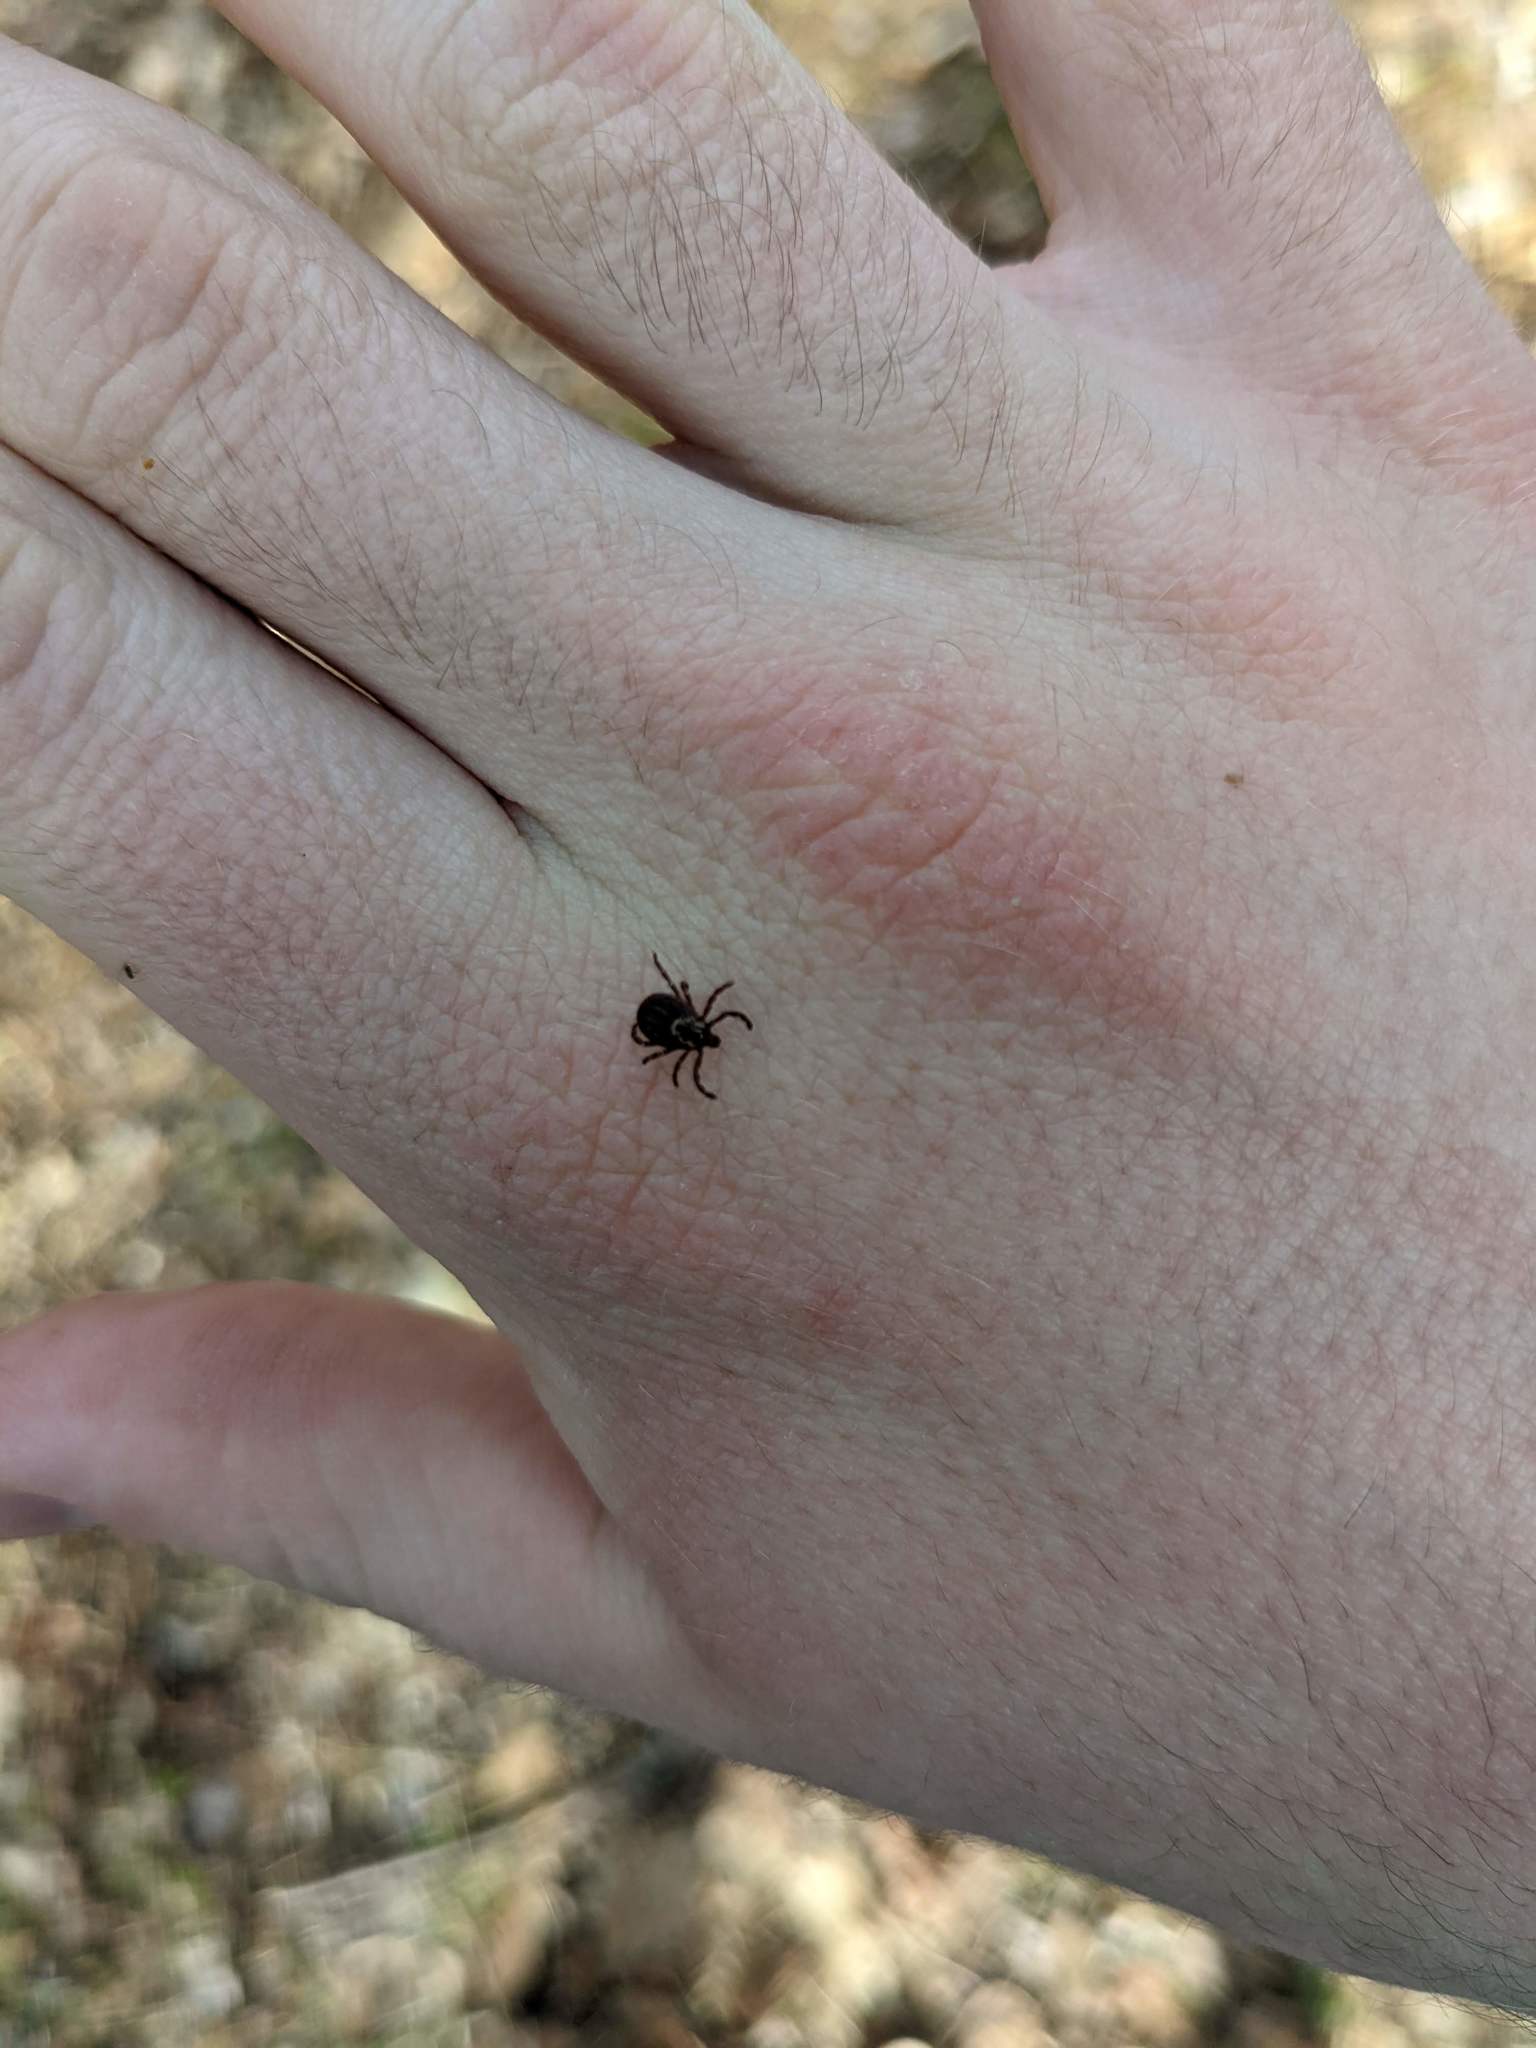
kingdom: Animalia
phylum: Arthropoda
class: Arachnida
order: Ixodida
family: Ixodidae
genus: Dermacentor
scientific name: Dermacentor variabilis
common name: American dog tick
